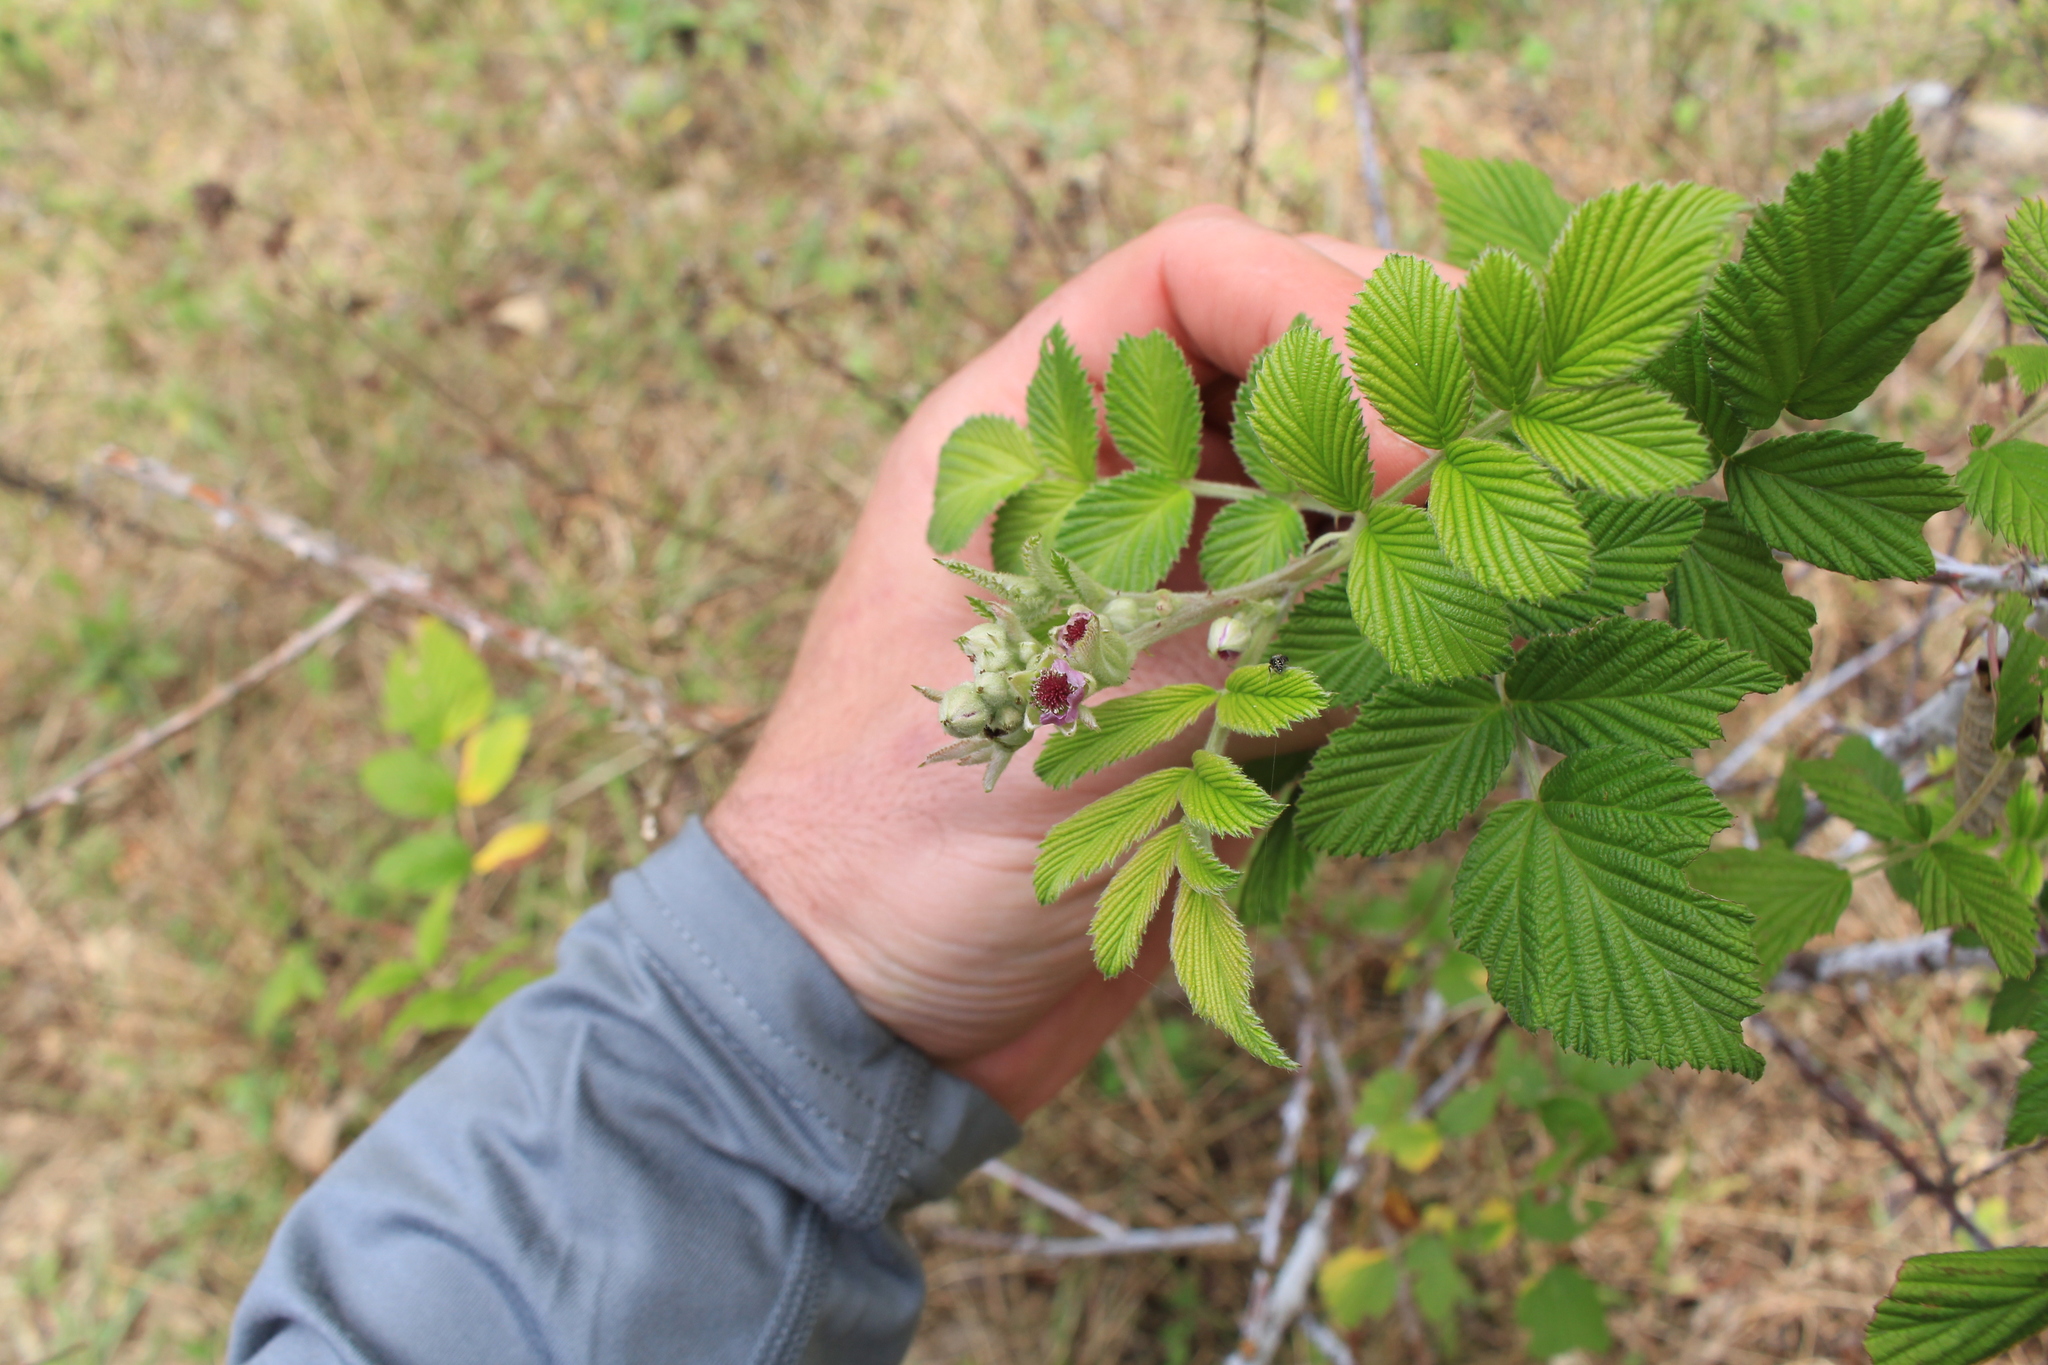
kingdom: Plantae
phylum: Tracheophyta
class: Magnoliopsida
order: Rosales
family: Rosaceae
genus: Rubus
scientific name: Rubus niveus
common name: Snowpeaks raspberry
